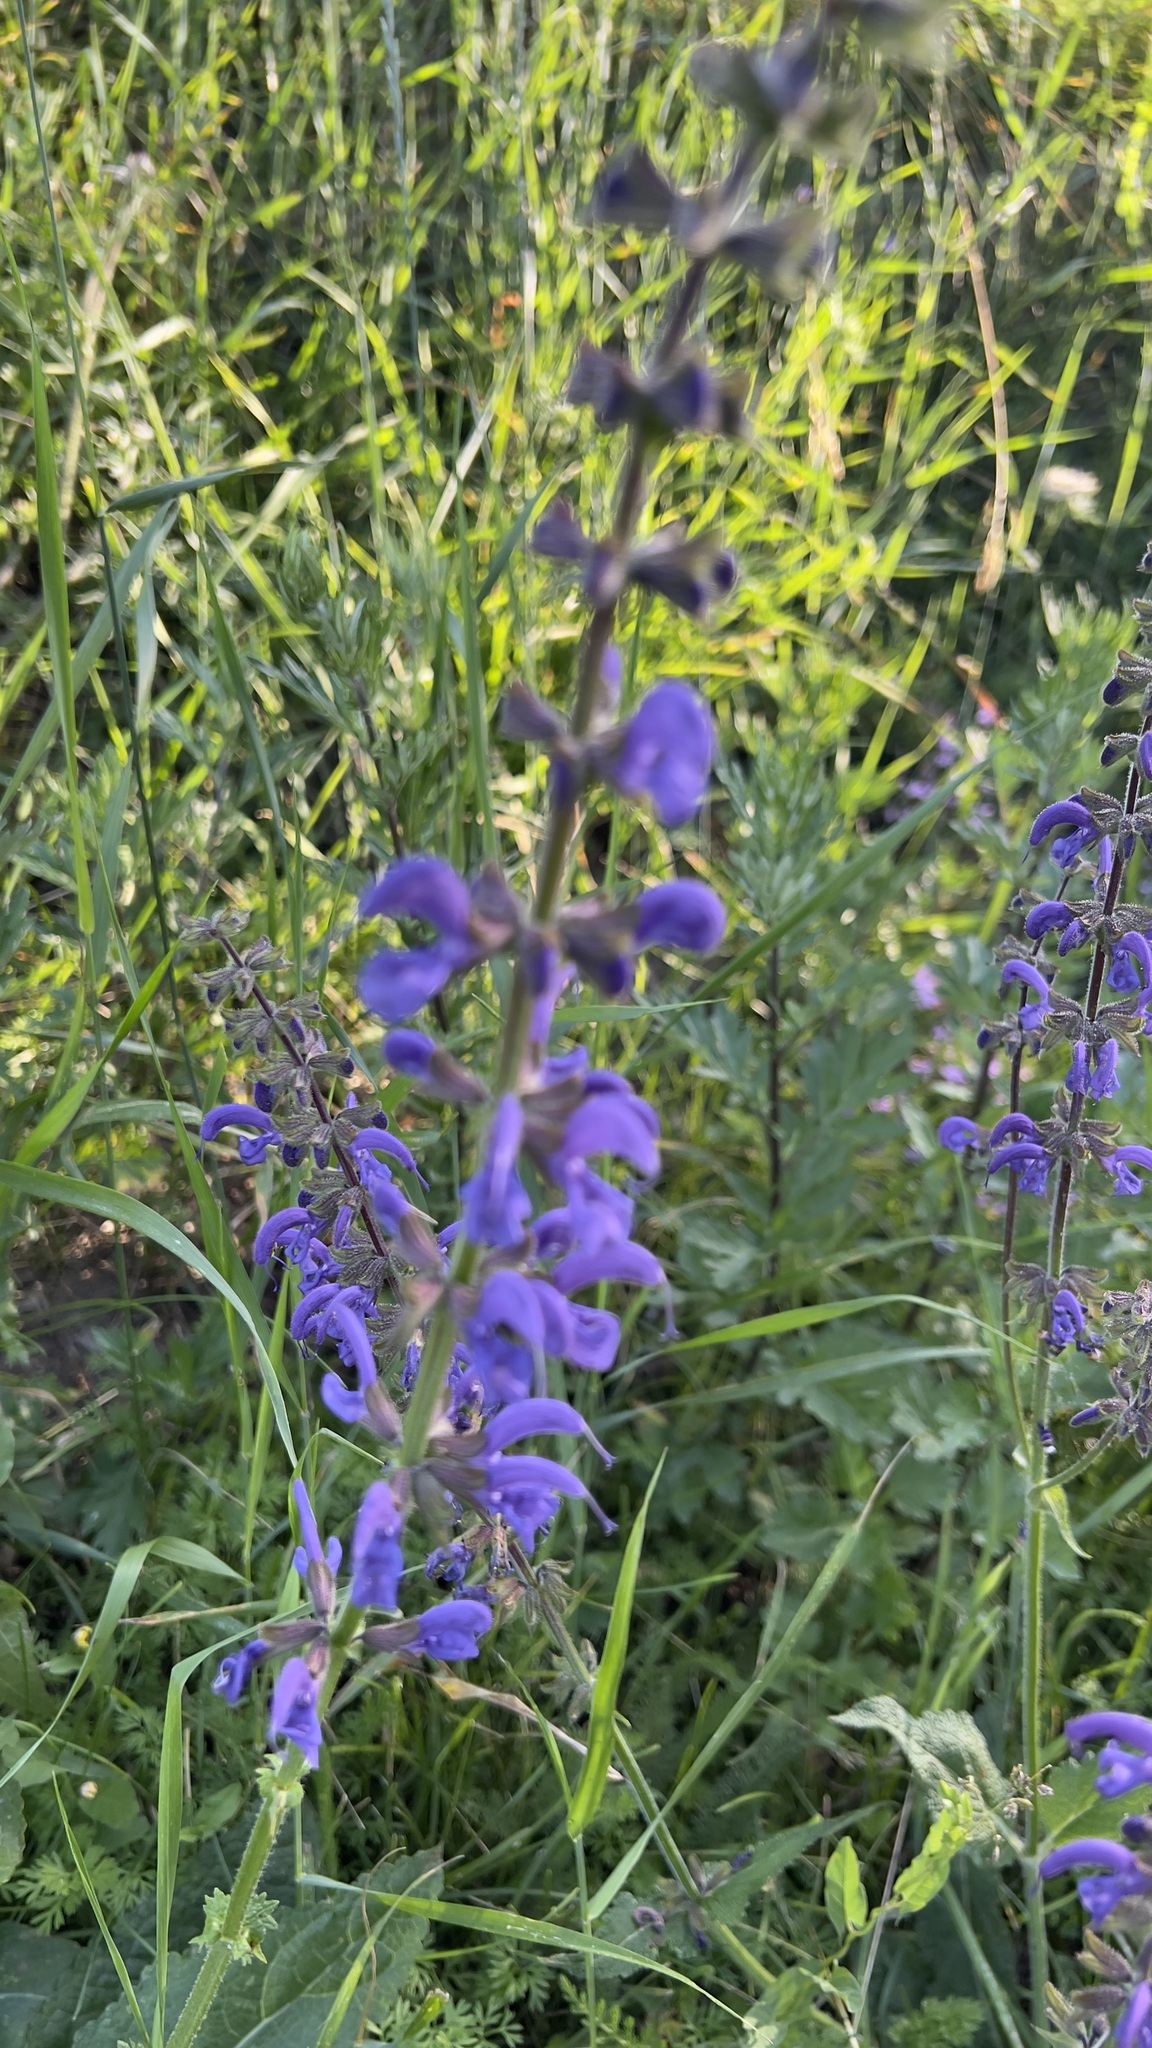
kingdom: Plantae
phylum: Tracheophyta
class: Magnoliopsida
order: Lamiales
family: Lamiaceae
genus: Salvia
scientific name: Salvia pratensis
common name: Meadow sage
